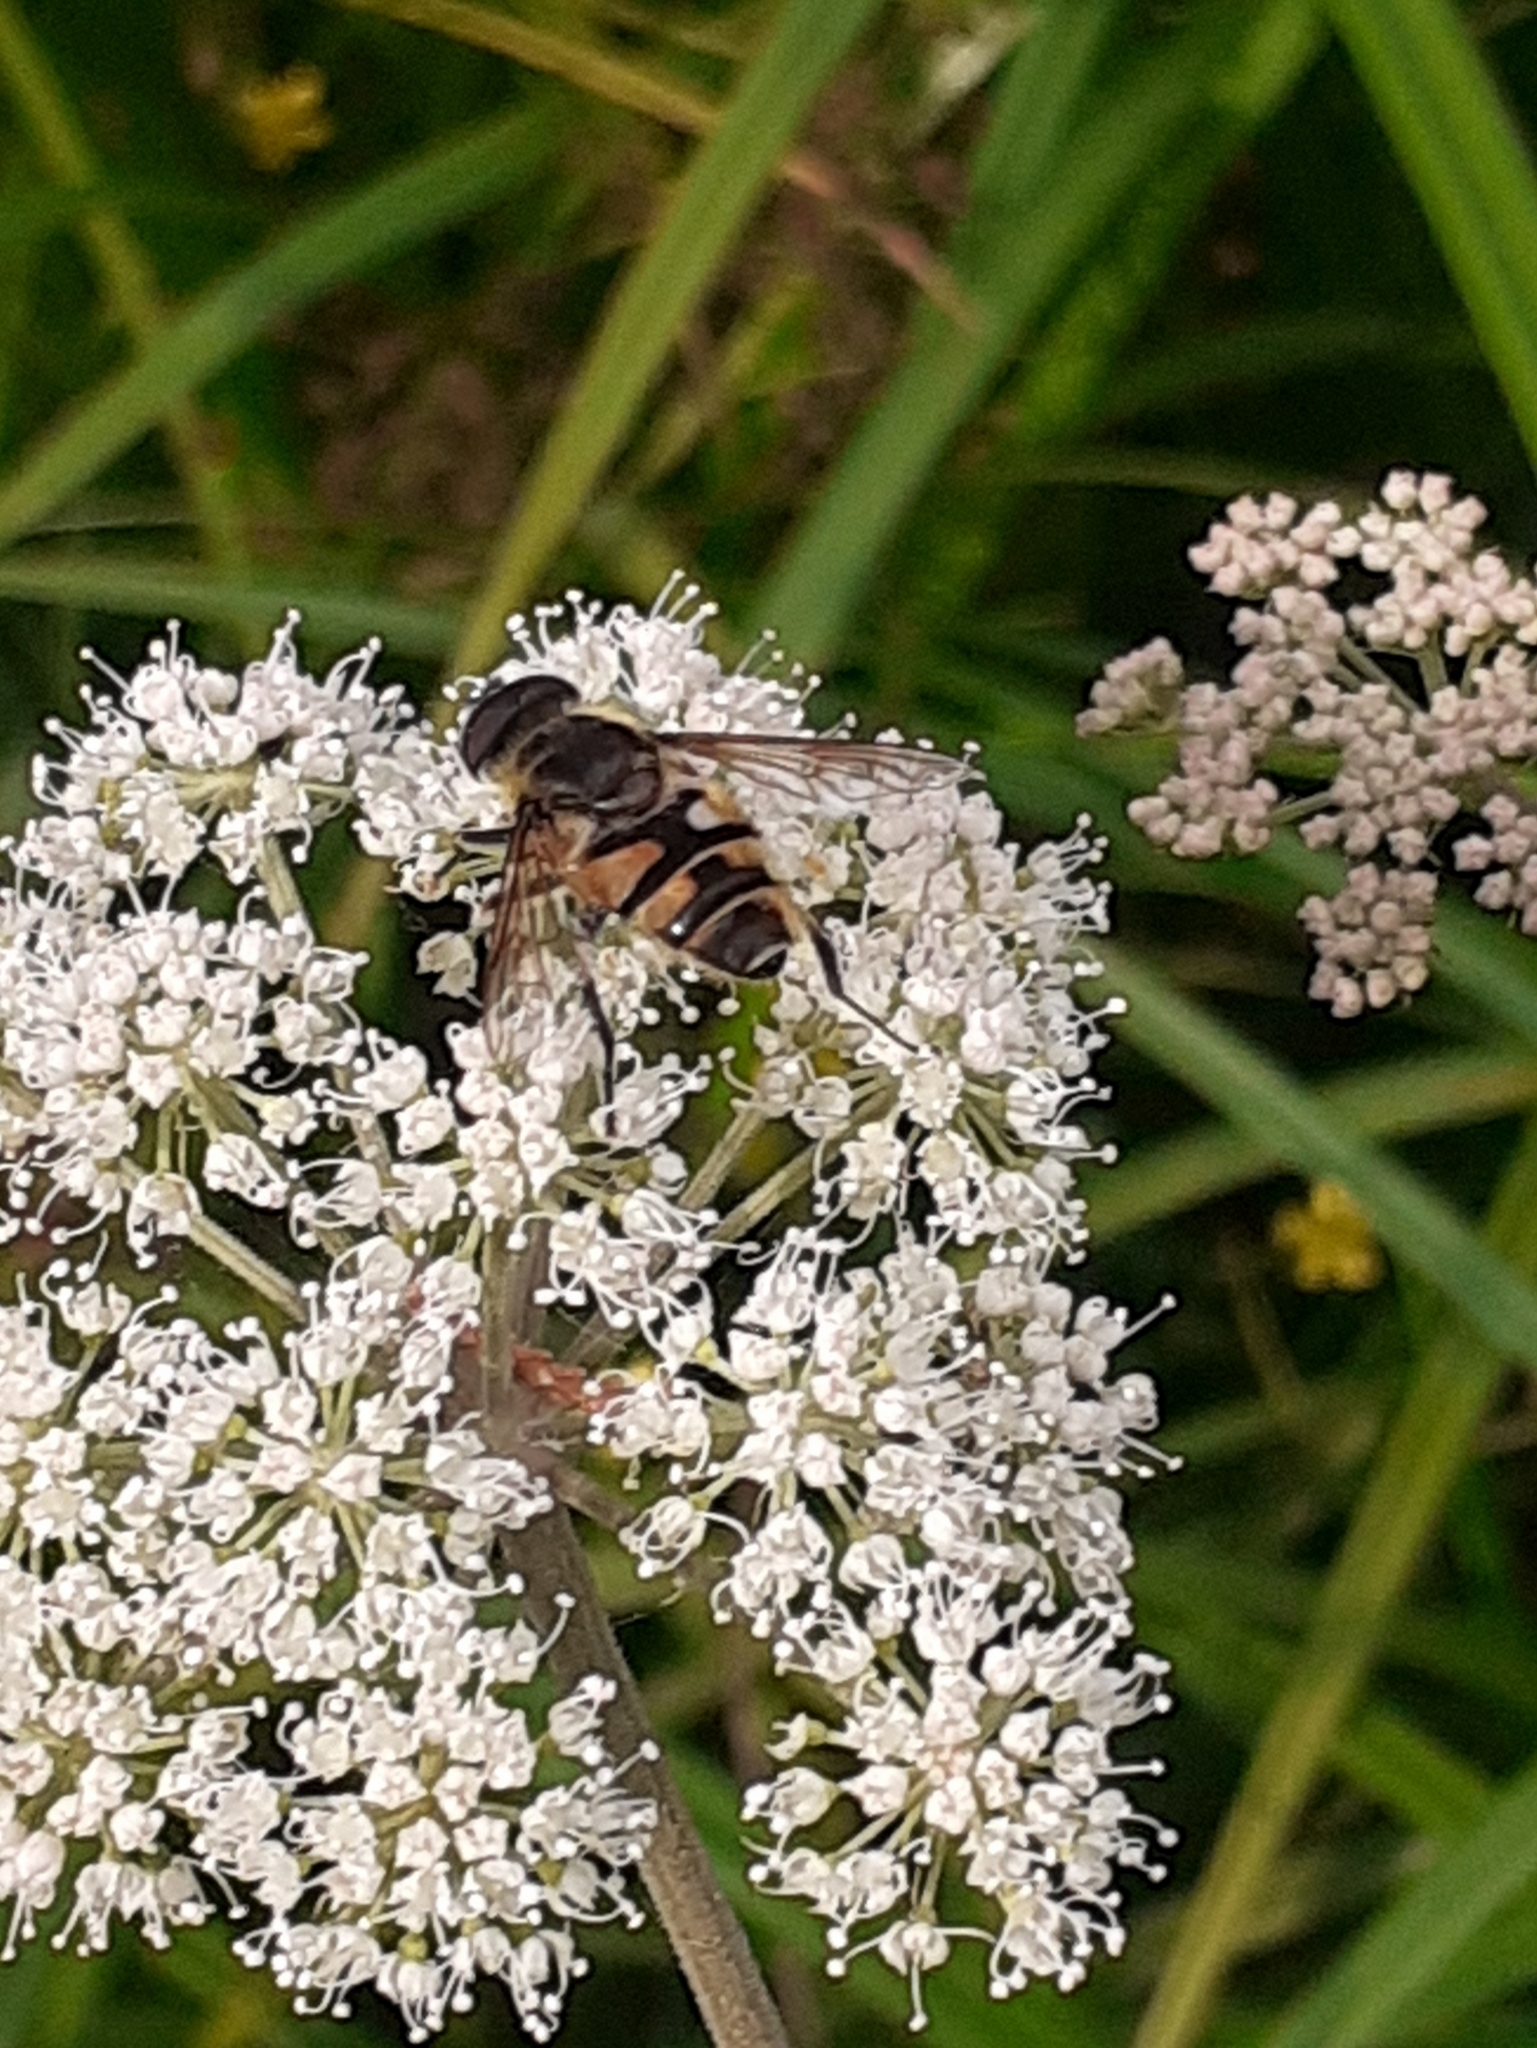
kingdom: Animalia
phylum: Arthropoda
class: Insecta
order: Diptera
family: Syrphidae
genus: Myathropa
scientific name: Myathropa florea
